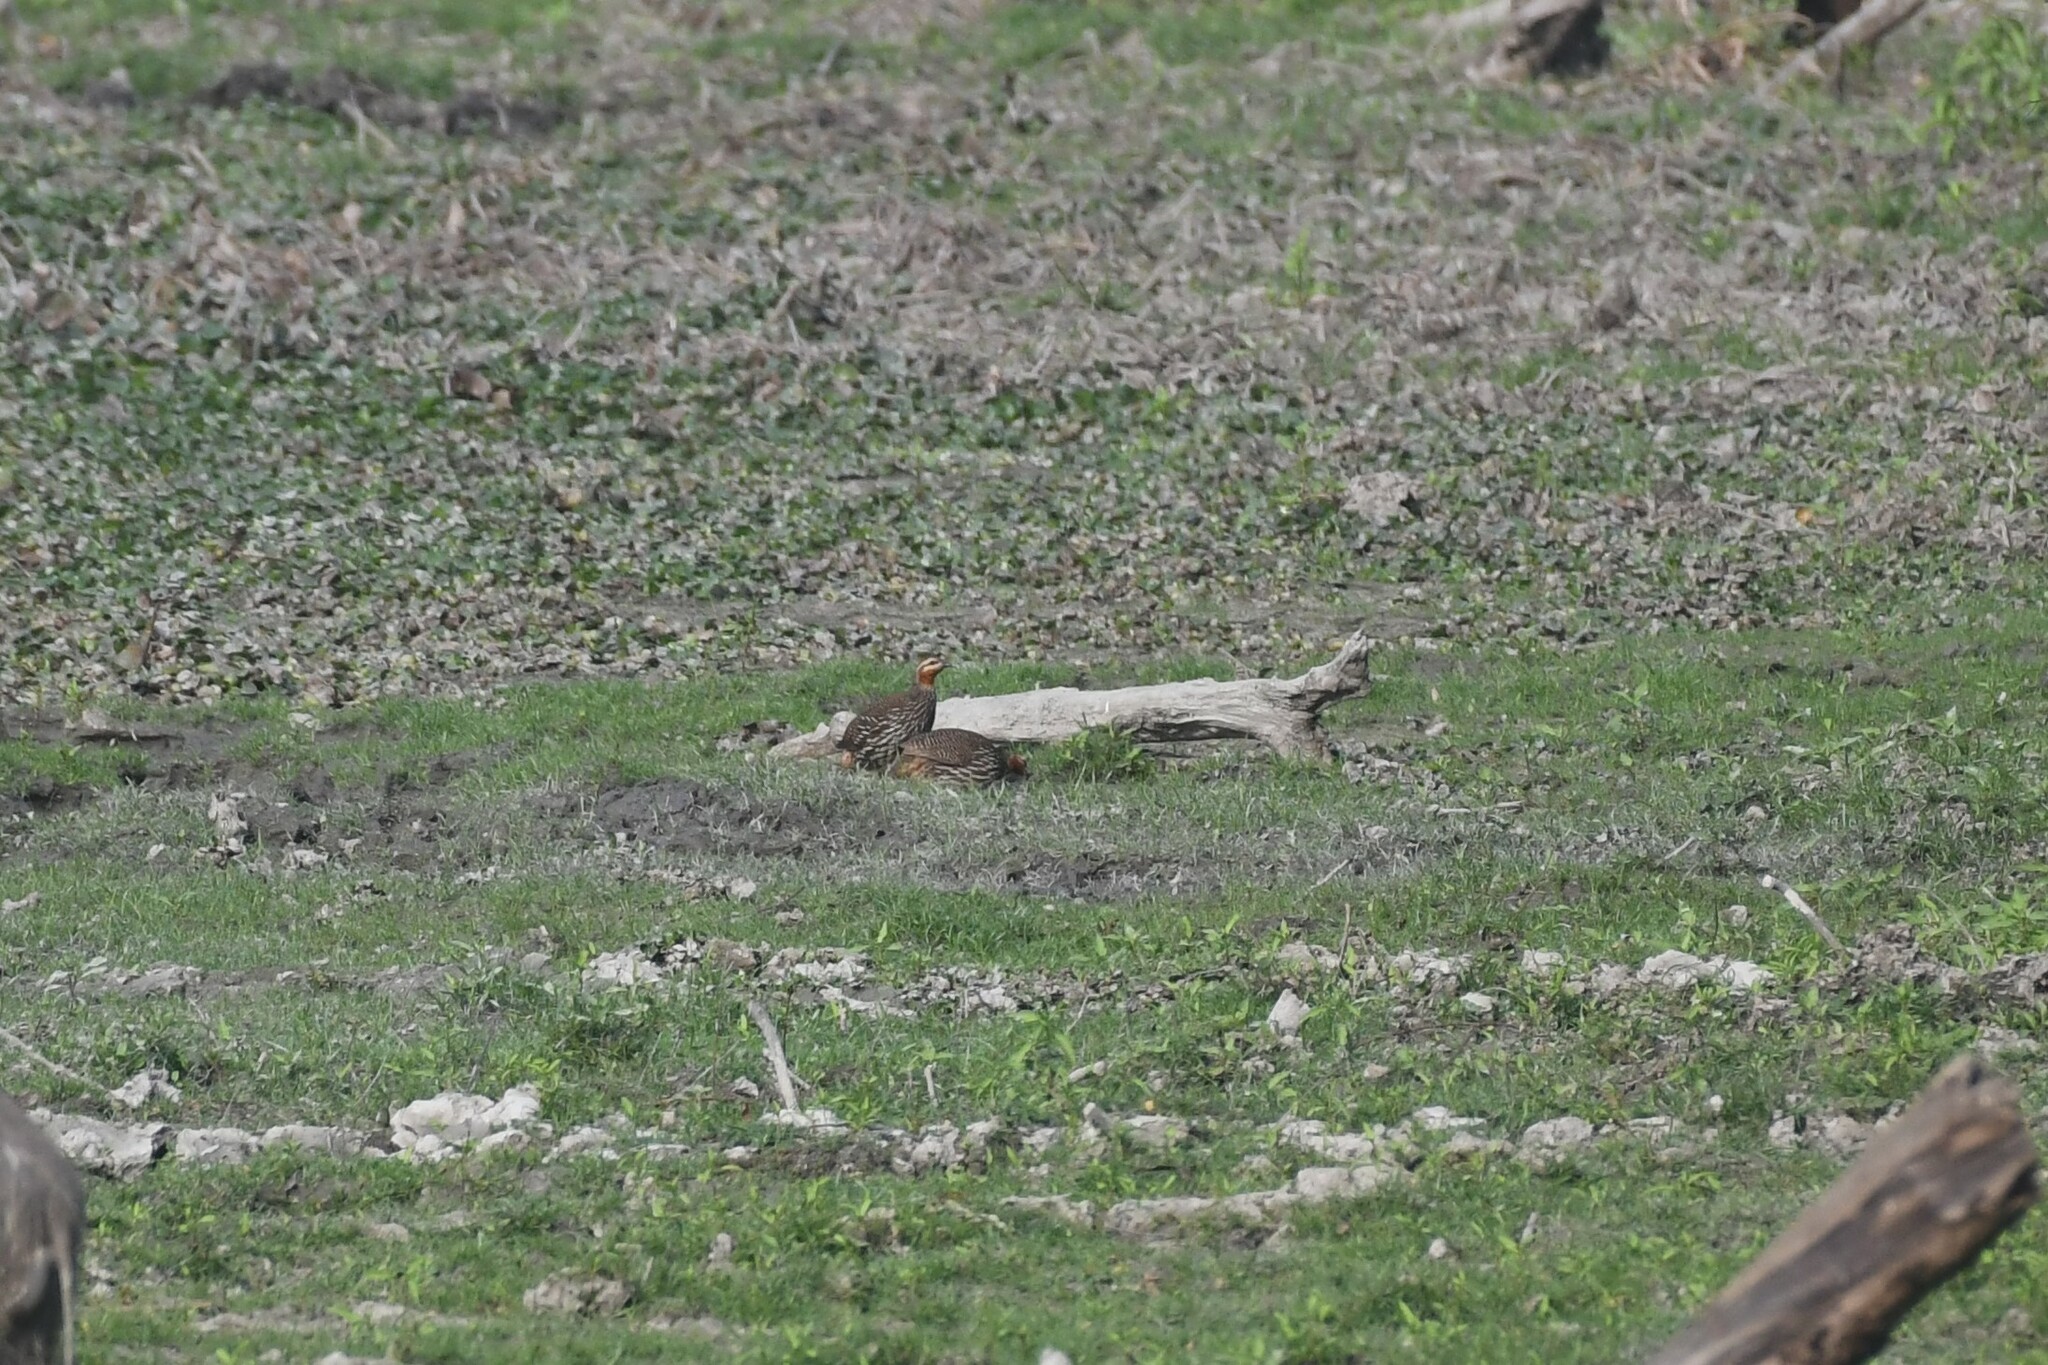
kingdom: Animalia
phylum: Chordata
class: Aves
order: Galliformes
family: Phasianidae
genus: Ortygornis
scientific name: Ortygornis gularis
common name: Swamp francolin
